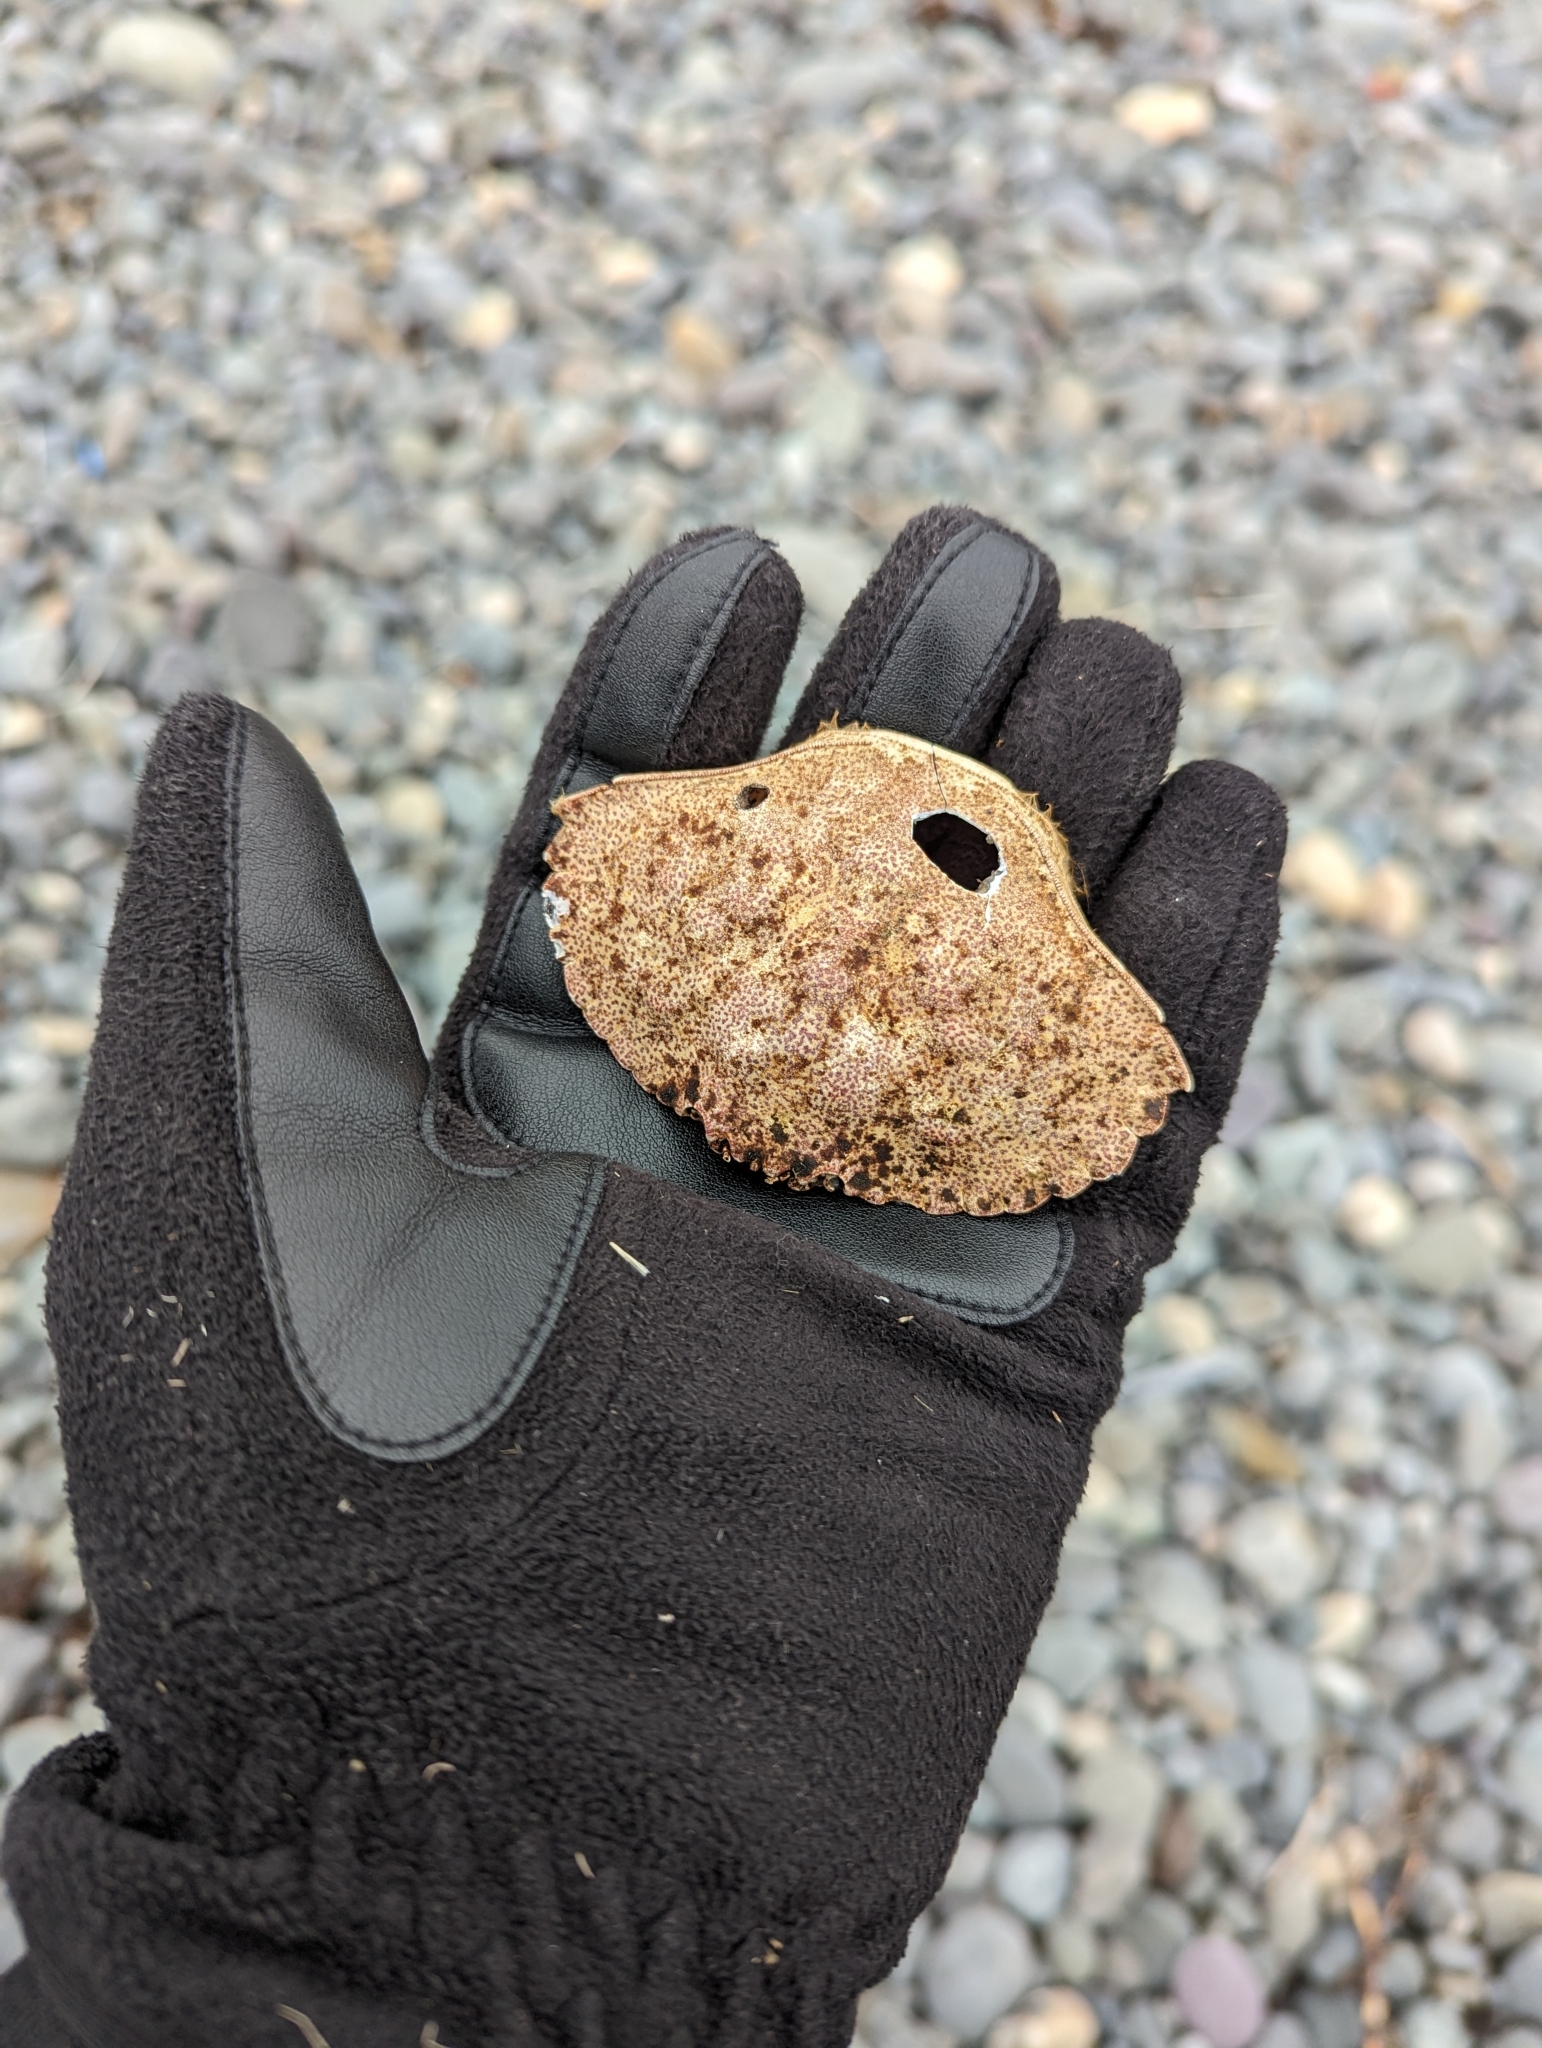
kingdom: Animalia
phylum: Arthropoda
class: Malacostraca
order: Decapoda
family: Cancridae
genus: Cancer
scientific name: Cancer irroratus
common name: Atlantic rock crab
